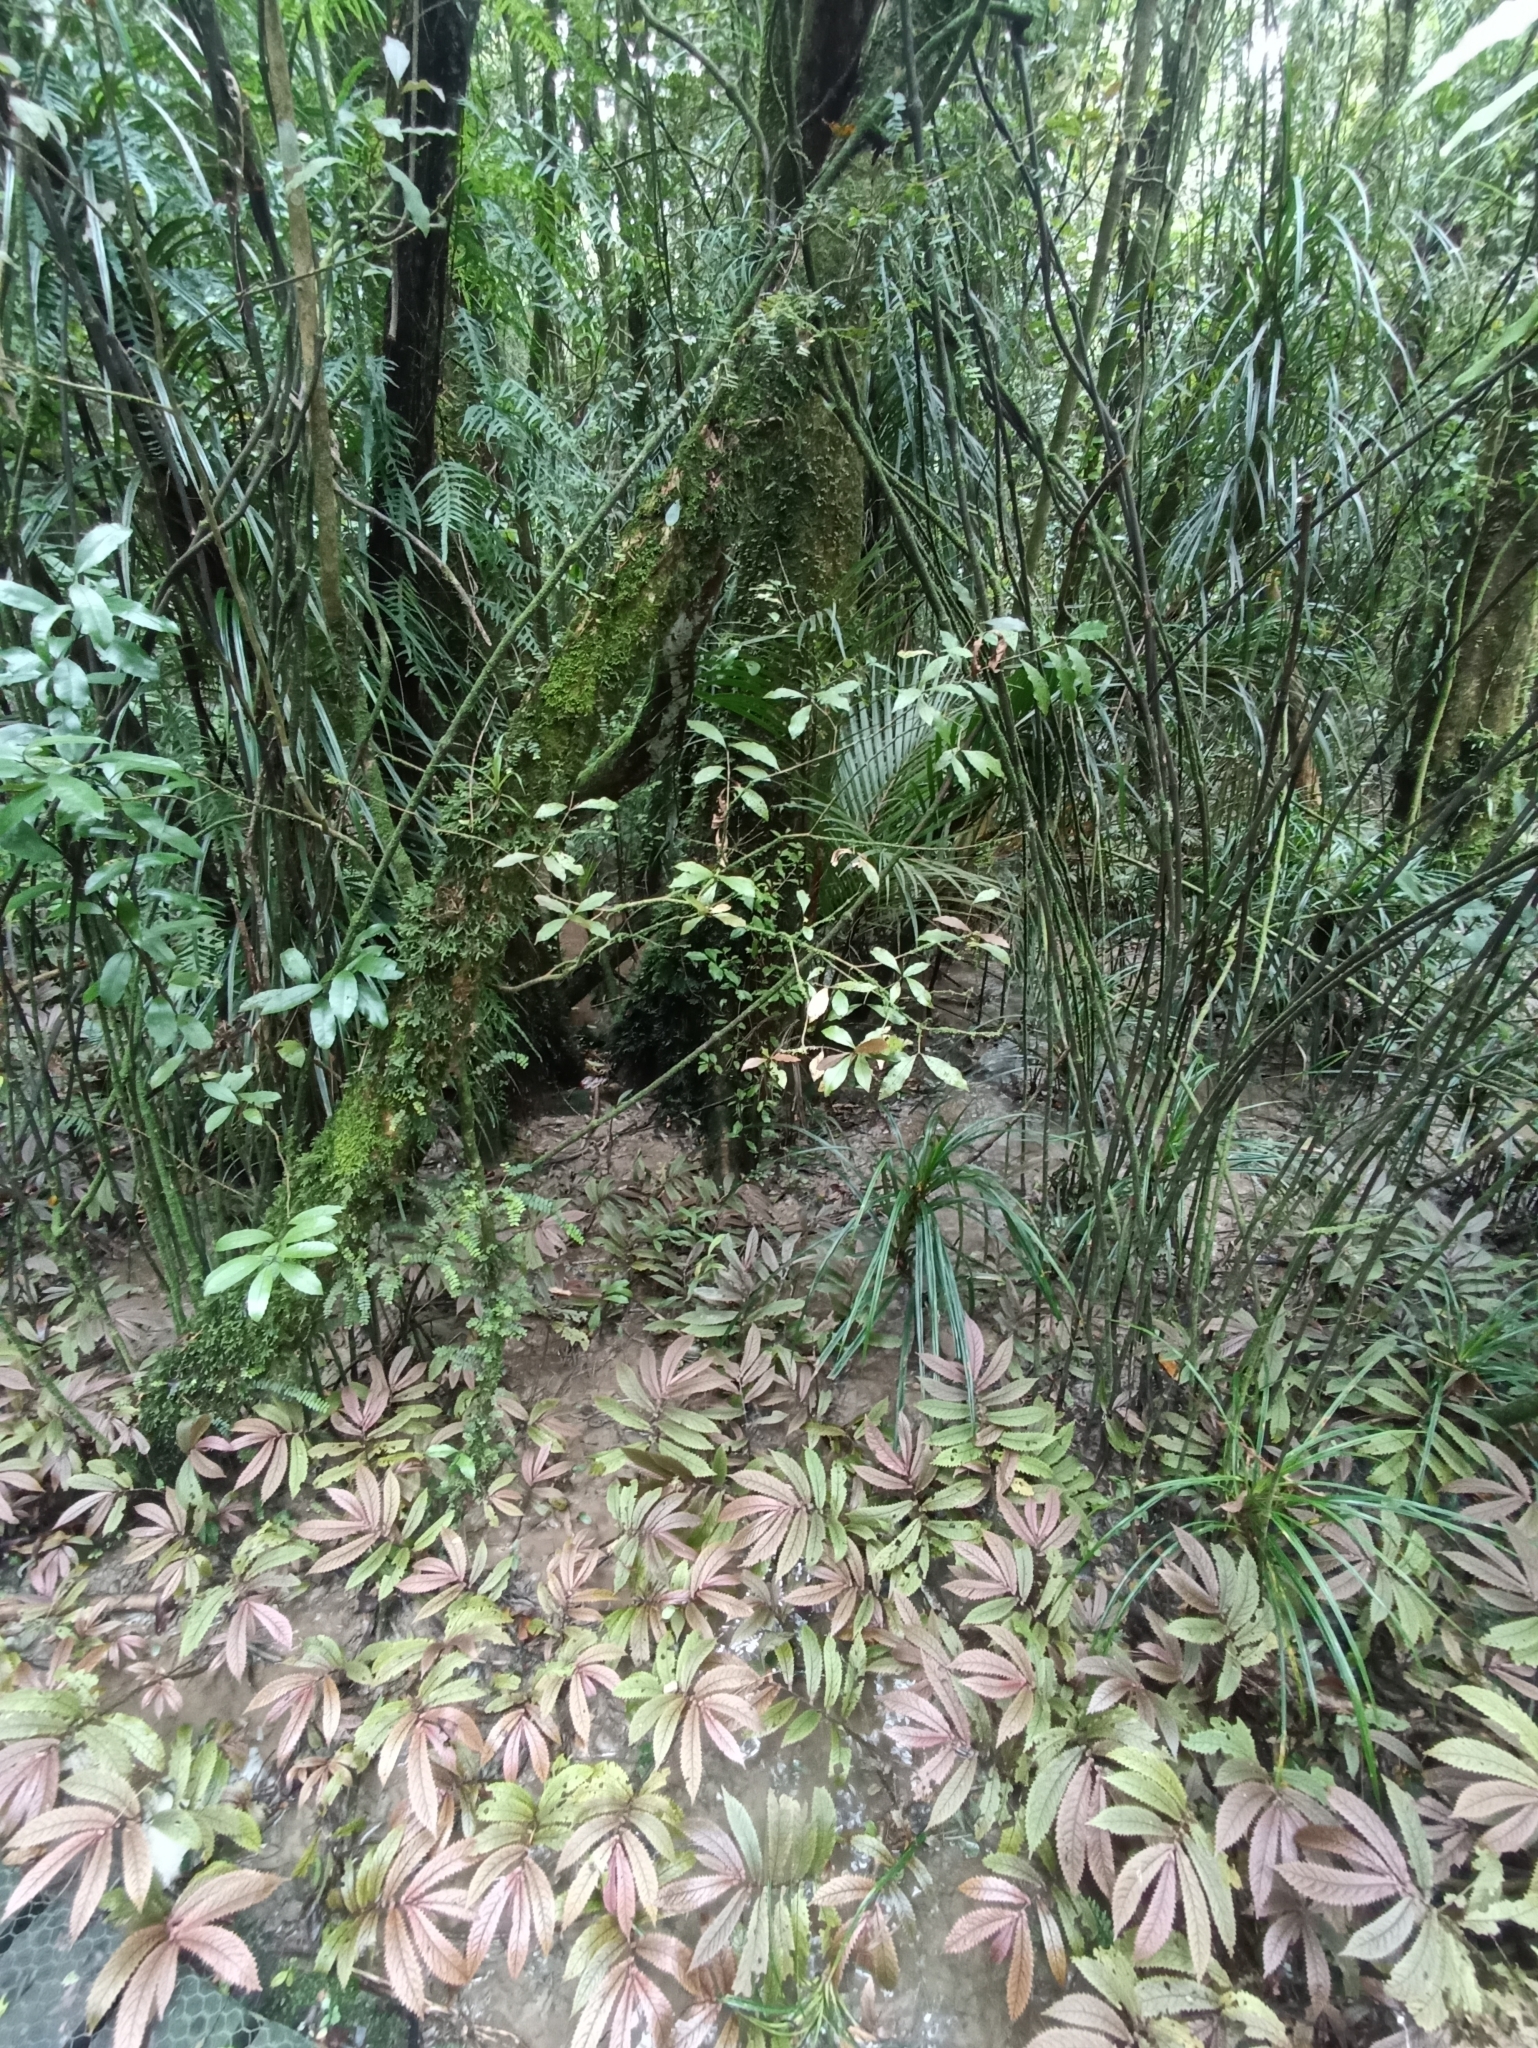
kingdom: Plantae
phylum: Tracheophyta
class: Magnoliopsida
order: Myrtales
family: Myrtaceae
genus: Syzygium
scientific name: Syzygium maire
